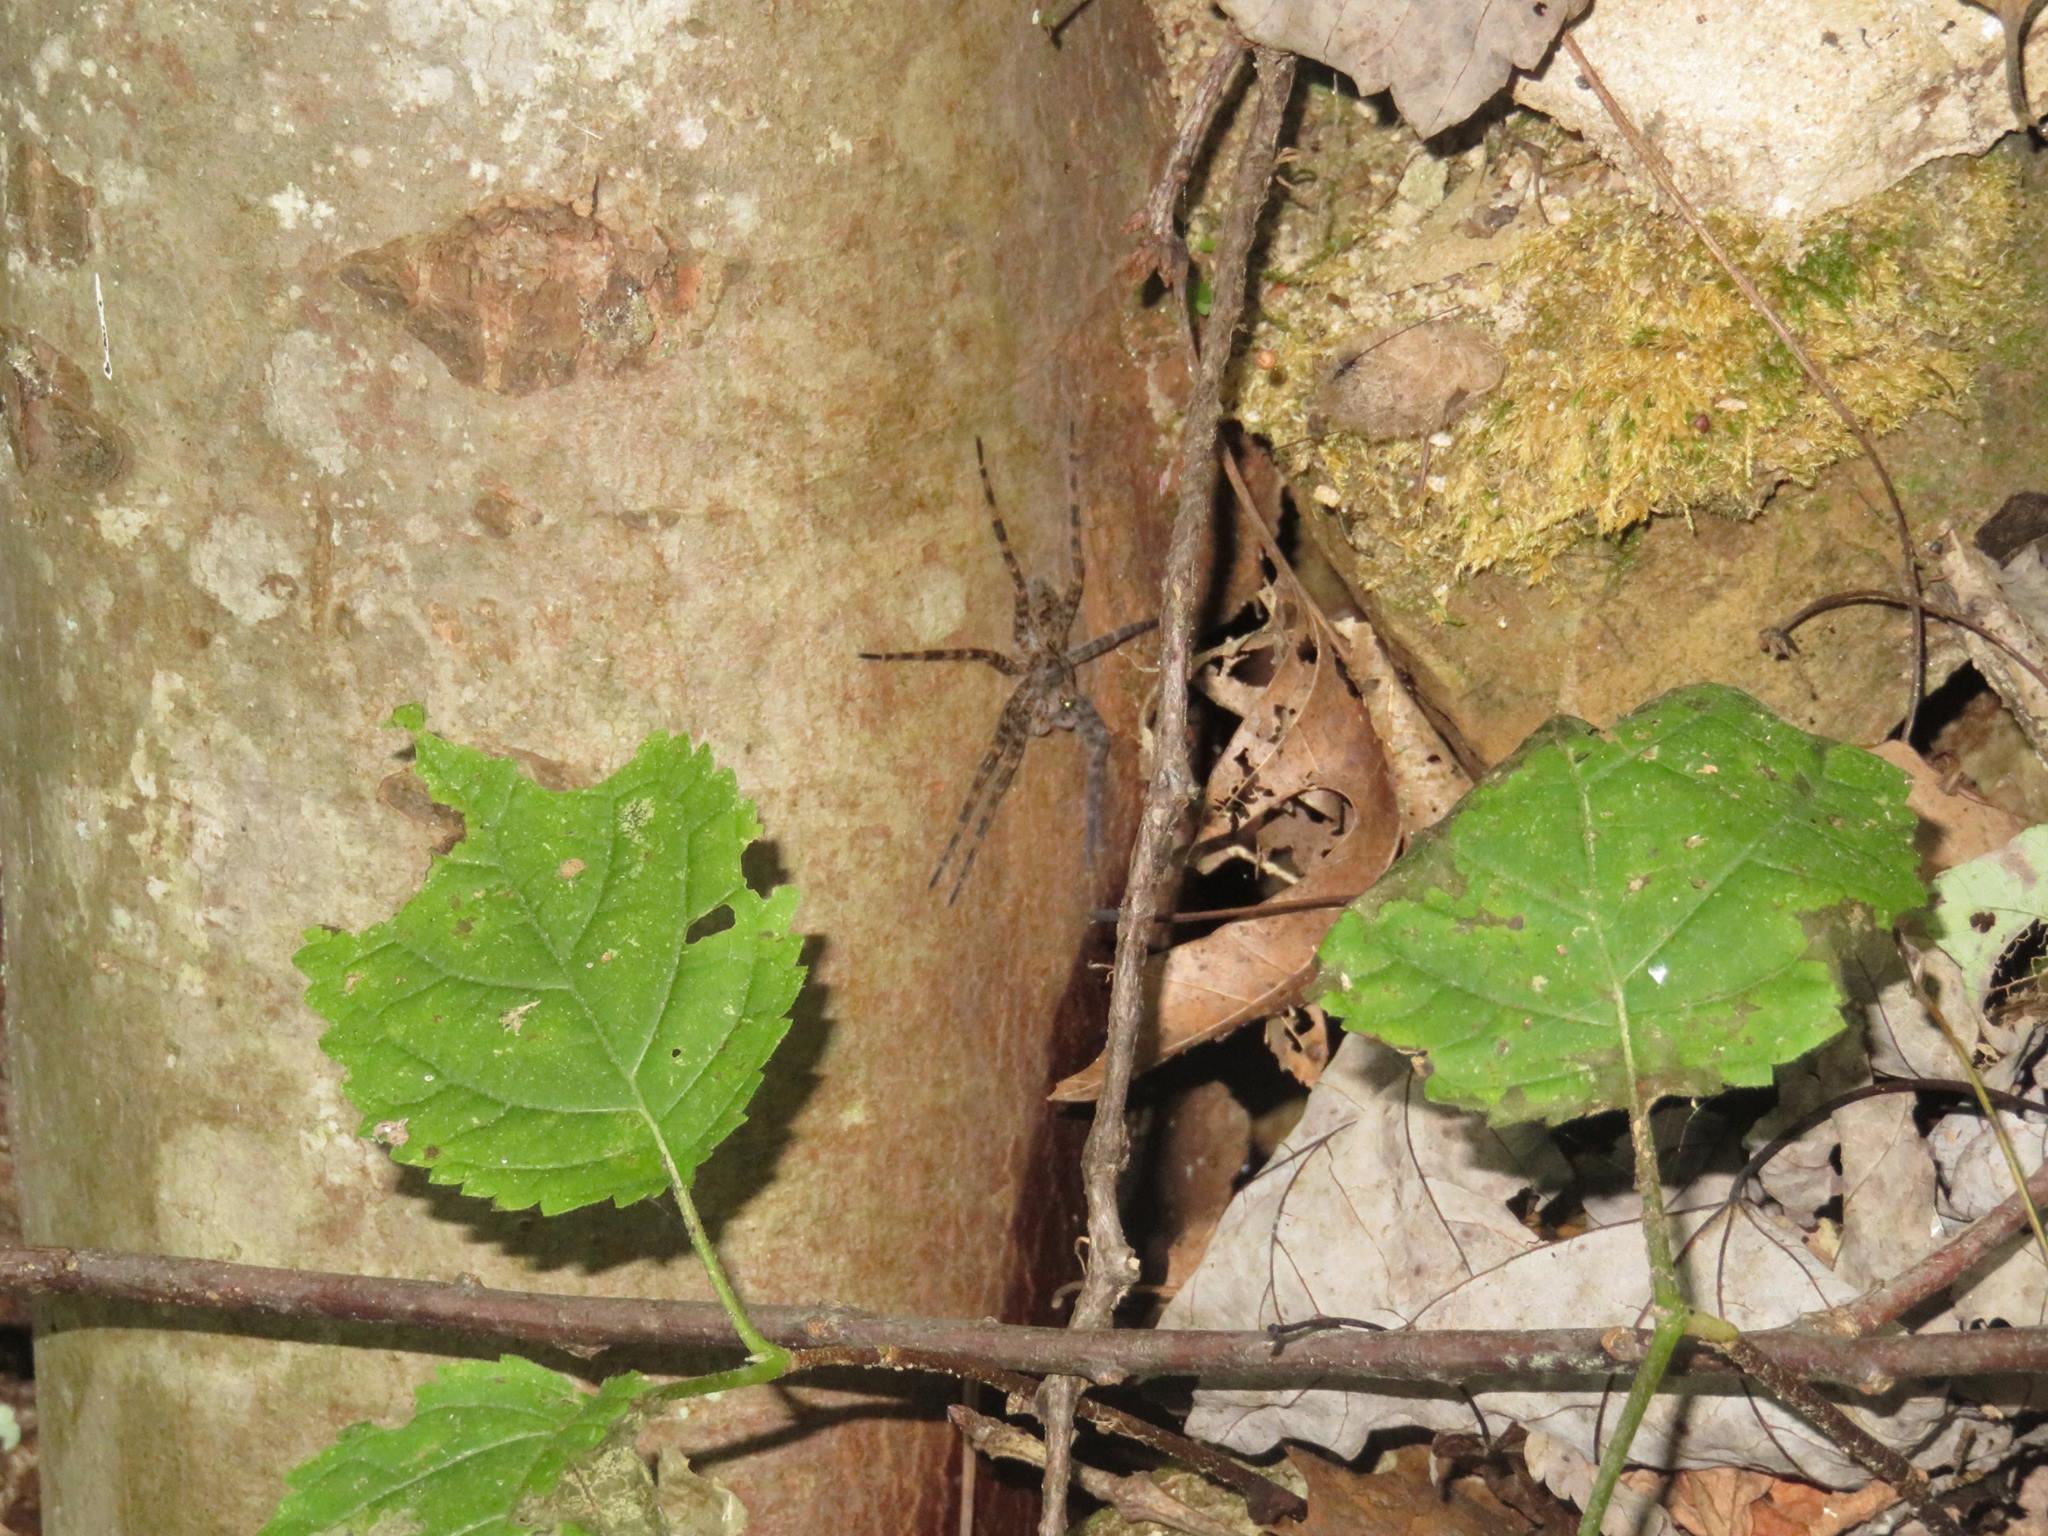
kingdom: Animalia
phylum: Arthropoda
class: Arachnida
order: Araneae
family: Pisauridae
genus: Dolomedes
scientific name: Dolomedes tenebrosus
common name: Dark fishing spider
